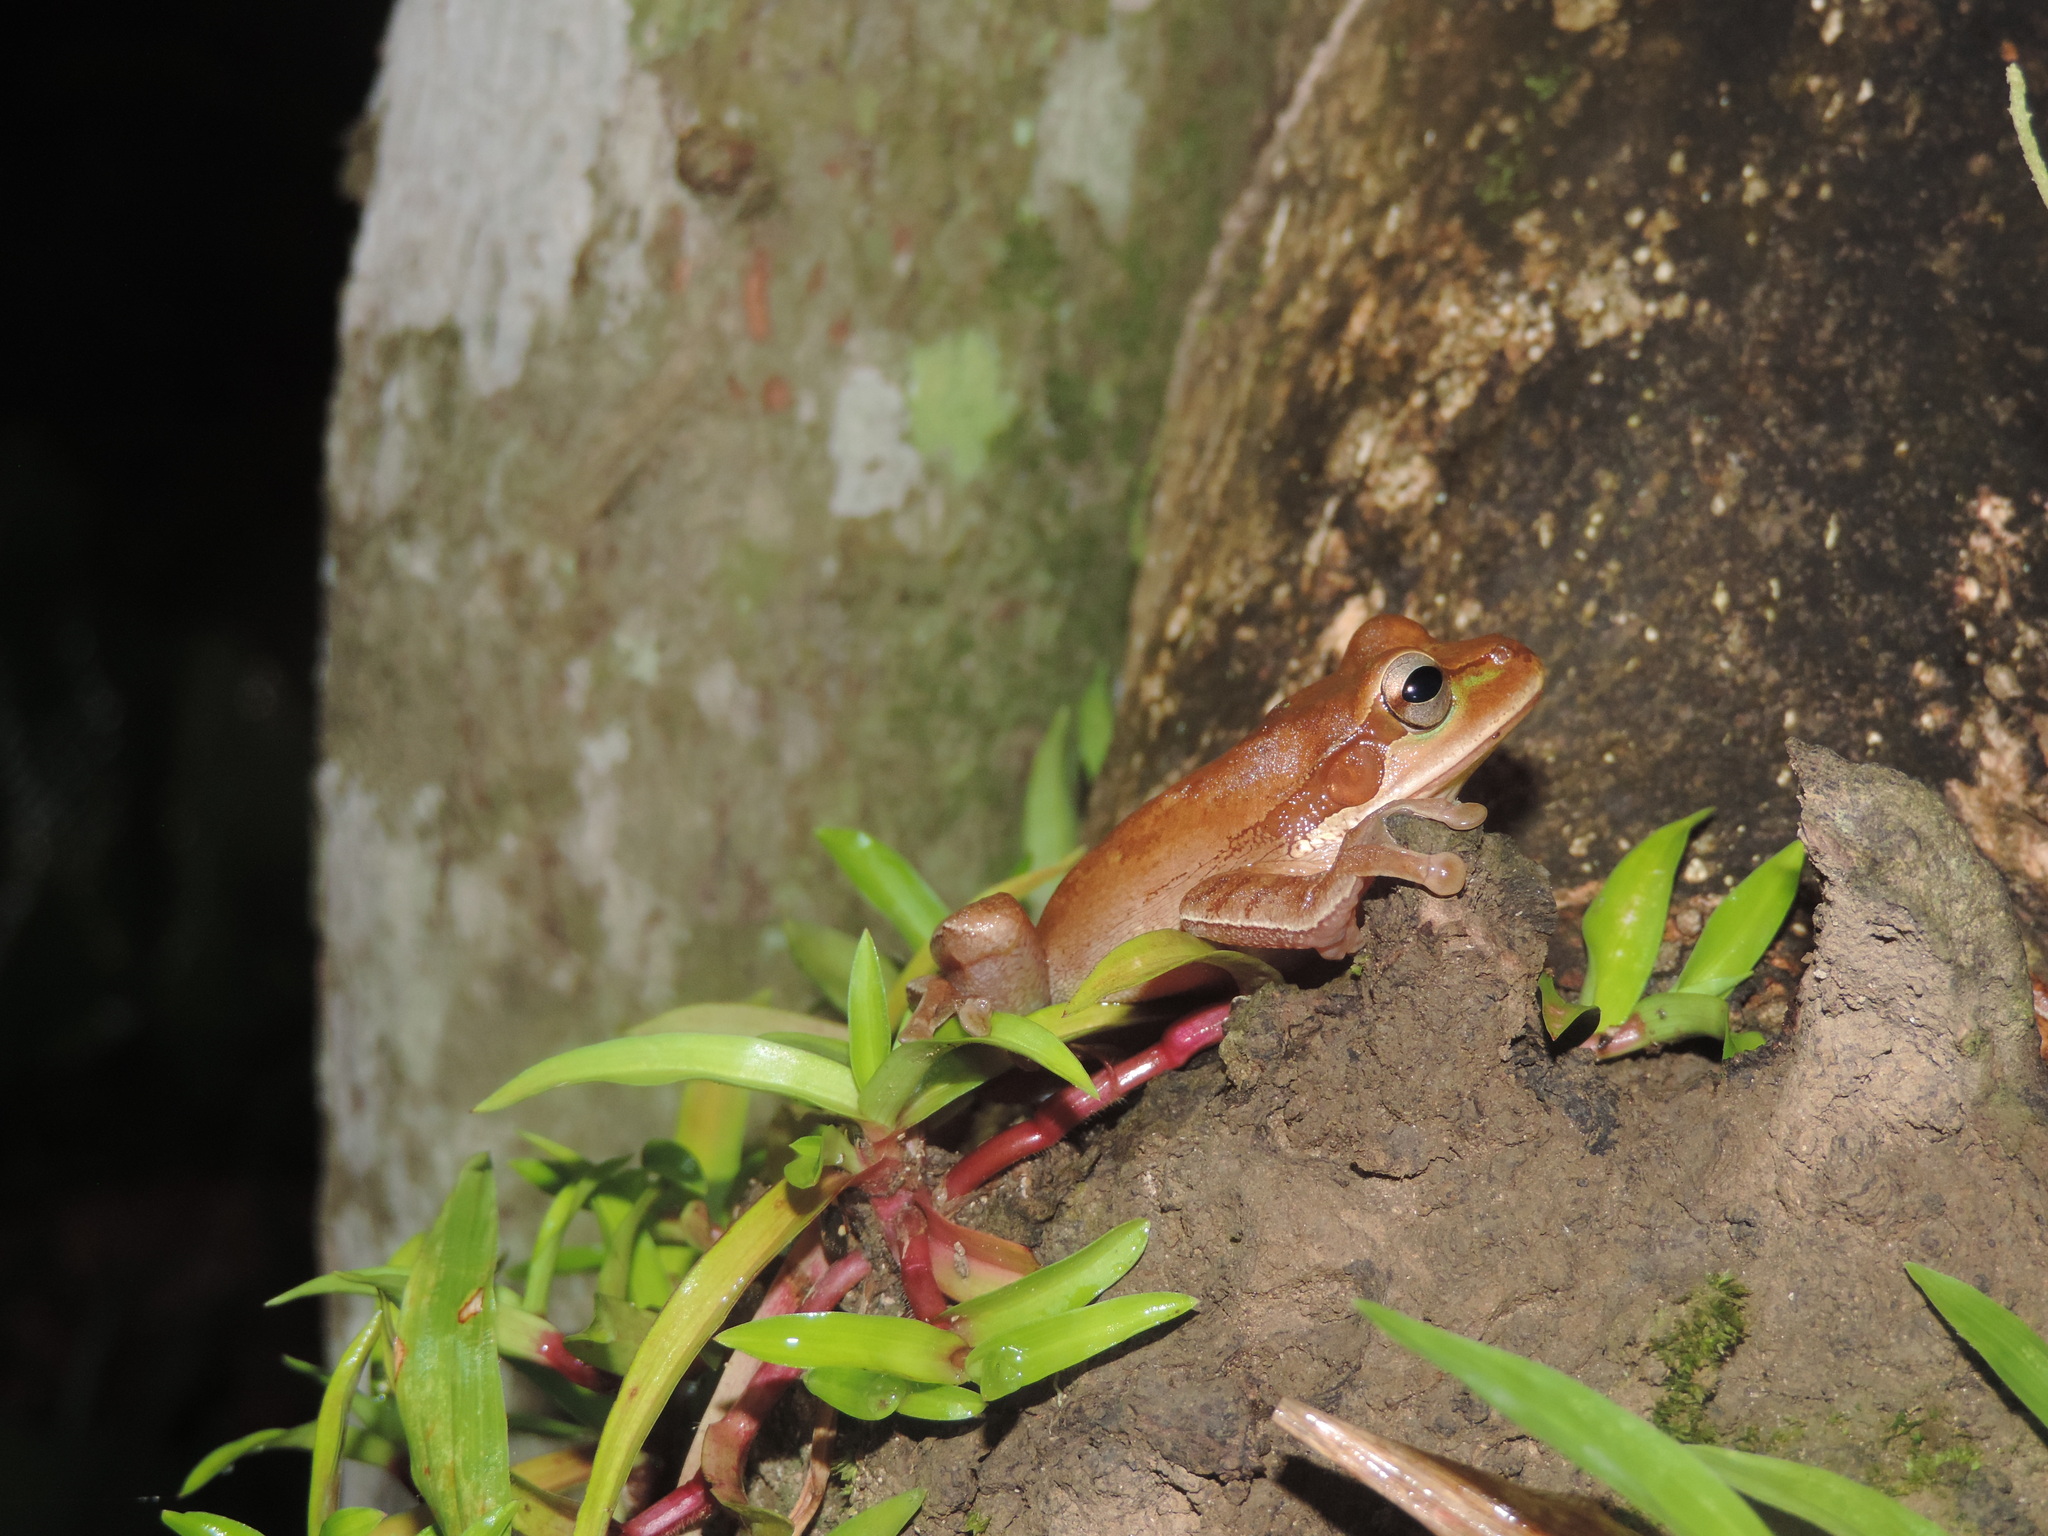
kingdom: Animalia
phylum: Chordata
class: Amphibia
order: Anura
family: Hylidae
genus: Smilisca
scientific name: Smilisca phaeota
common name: Central american smilisca
